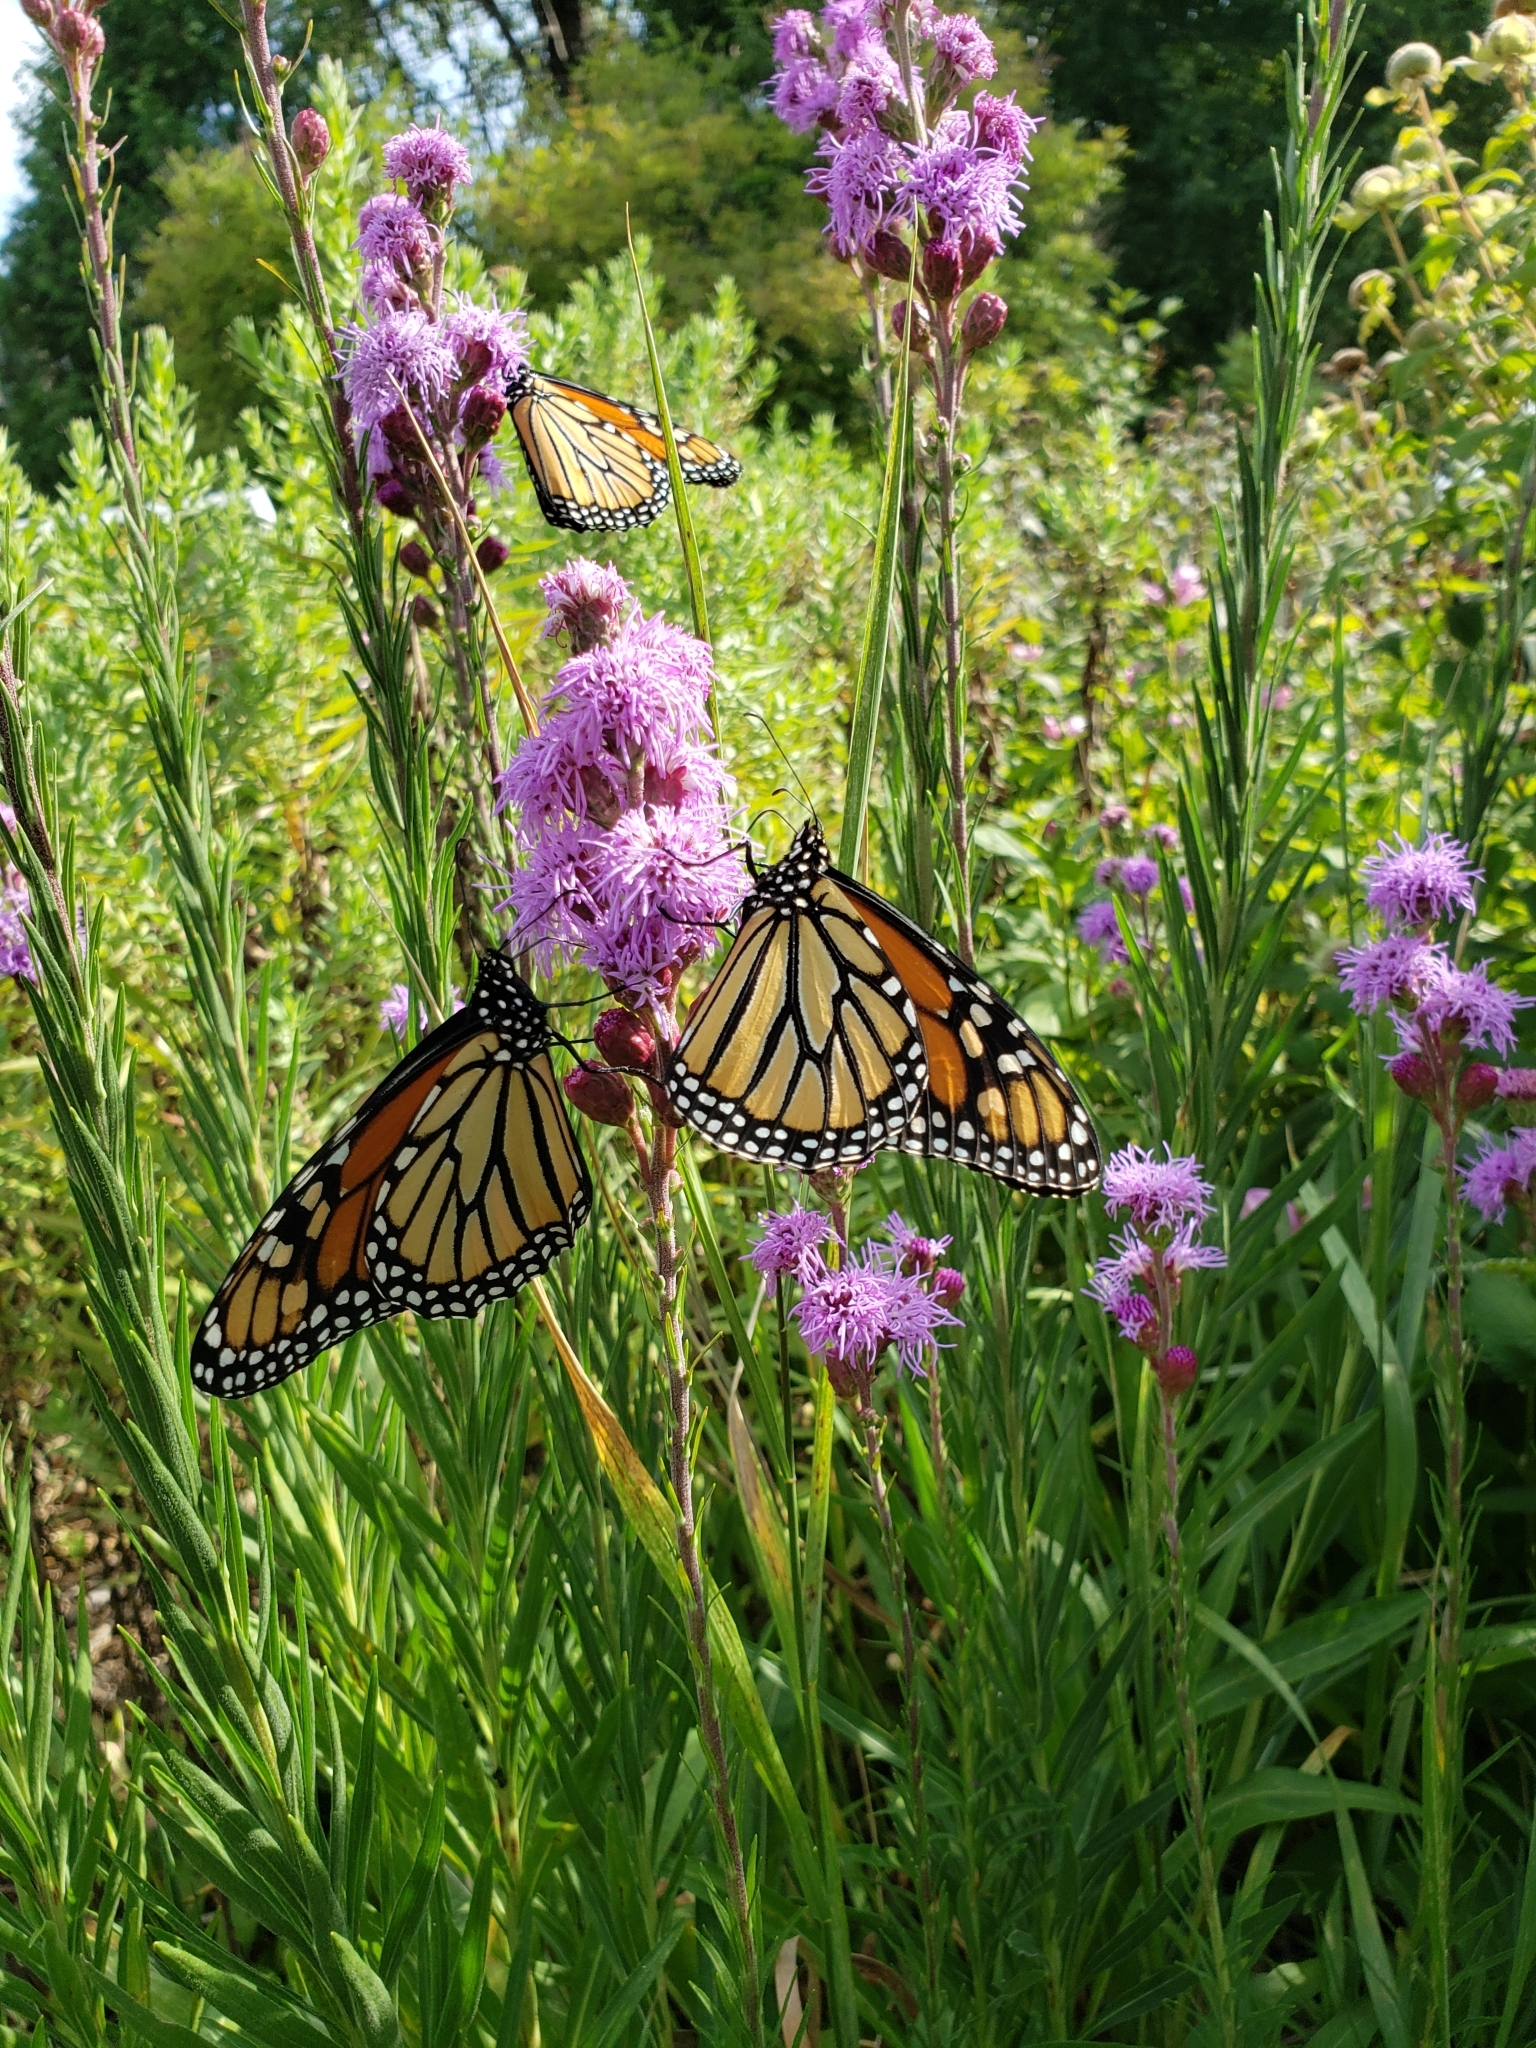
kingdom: Animalia
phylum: Arthropoda
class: Insecta
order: Lepidoptera
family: Nymphalidae
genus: Danaus
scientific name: Danaus plexippus
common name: Monarch
